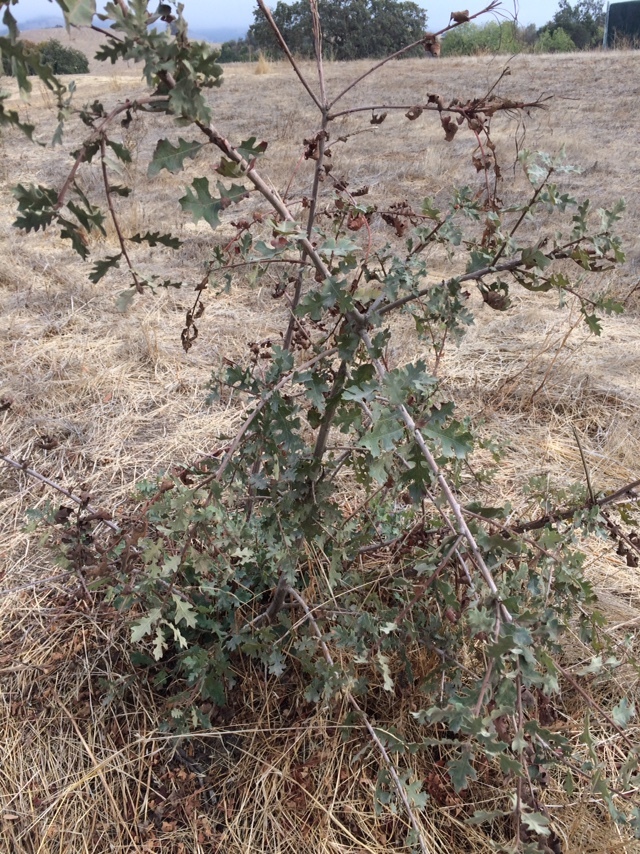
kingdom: Plantae
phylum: Tracheophyta
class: Magnoliopsida
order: Fagales
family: Fagaceae
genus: Quercus
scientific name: Quercus lobata
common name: Valley oak
